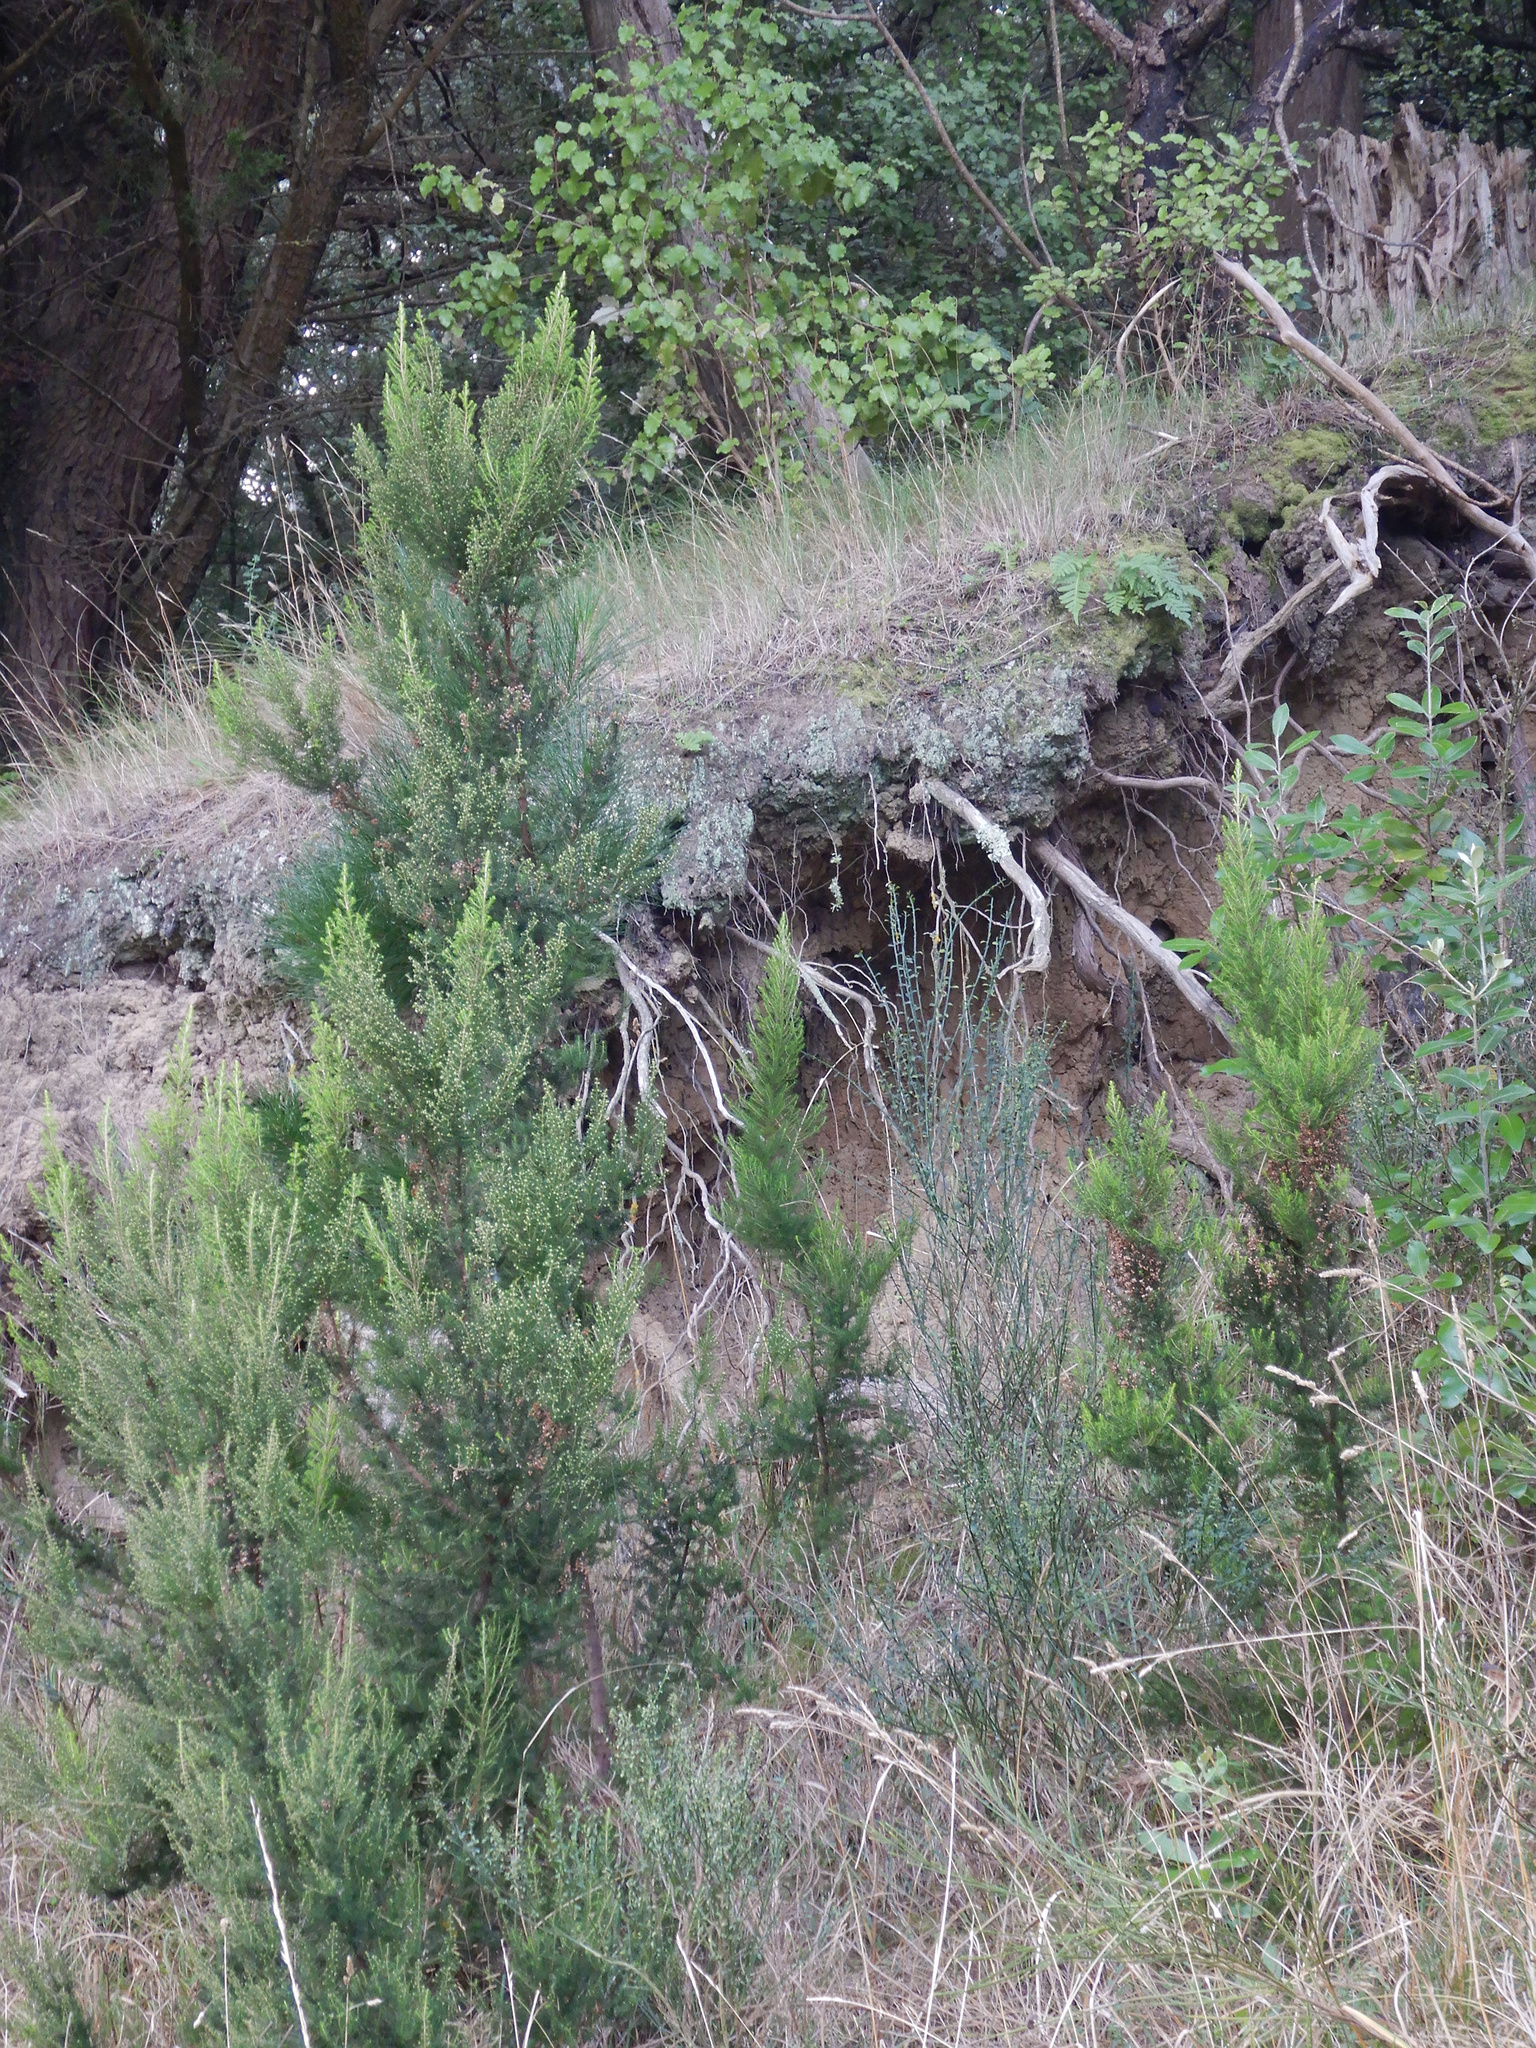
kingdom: Plantae
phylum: Tracheophyta
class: Magnoliopsida
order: Ericales
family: Ericaceae
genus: Erica
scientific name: Erica lusitanica
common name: Spanish heath
